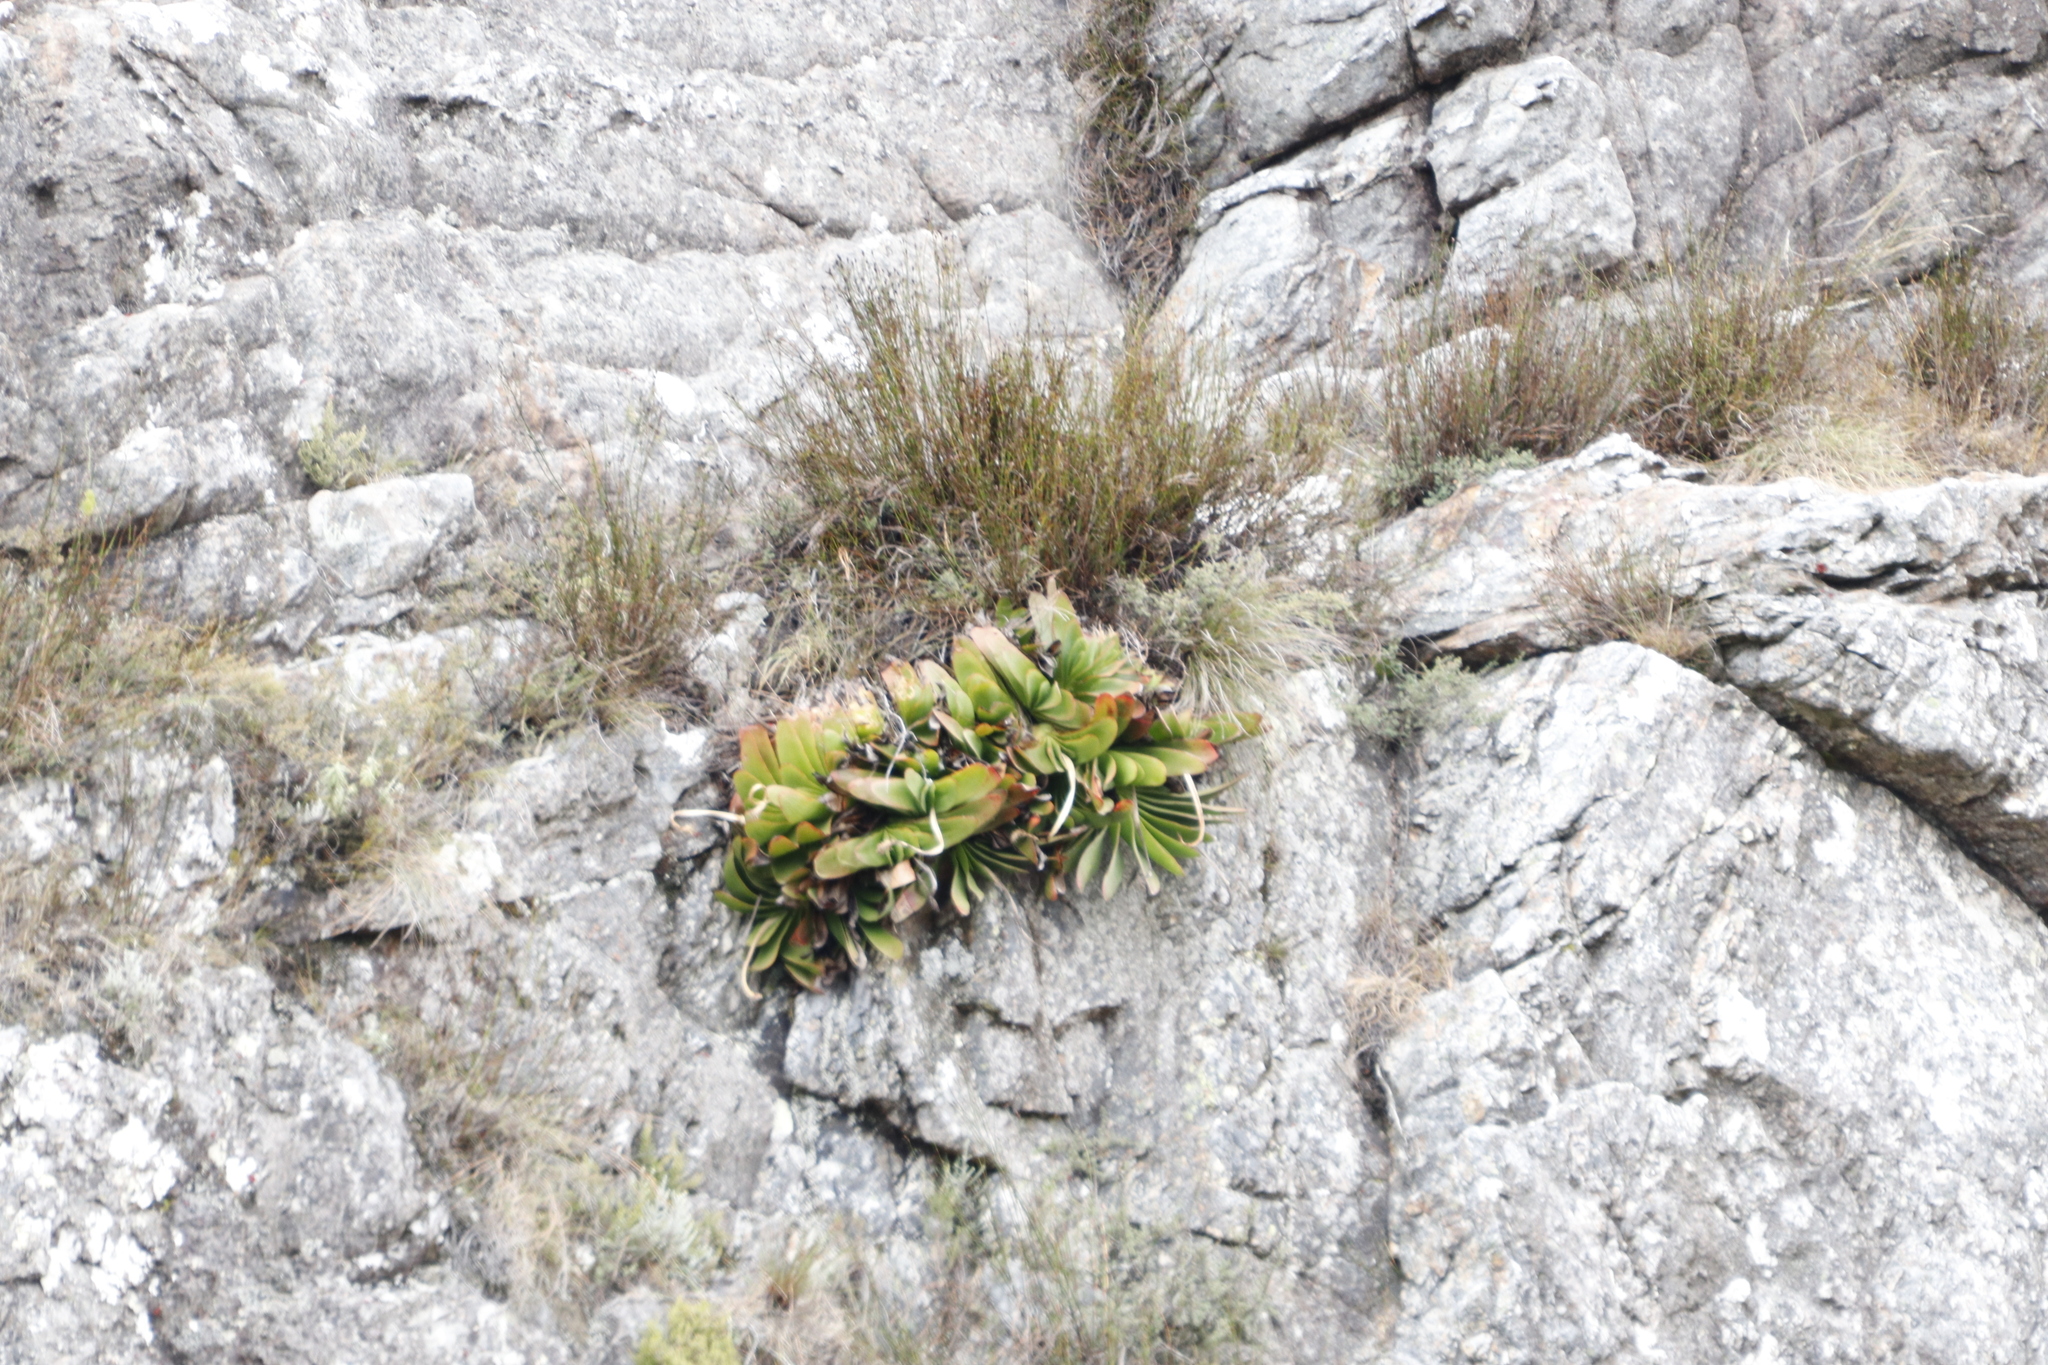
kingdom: Plantae
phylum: Tracheophyta
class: Liliopsida
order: Asparagales
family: Asphodelaceae
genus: Kumara
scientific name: Kumara haemanthifolia
